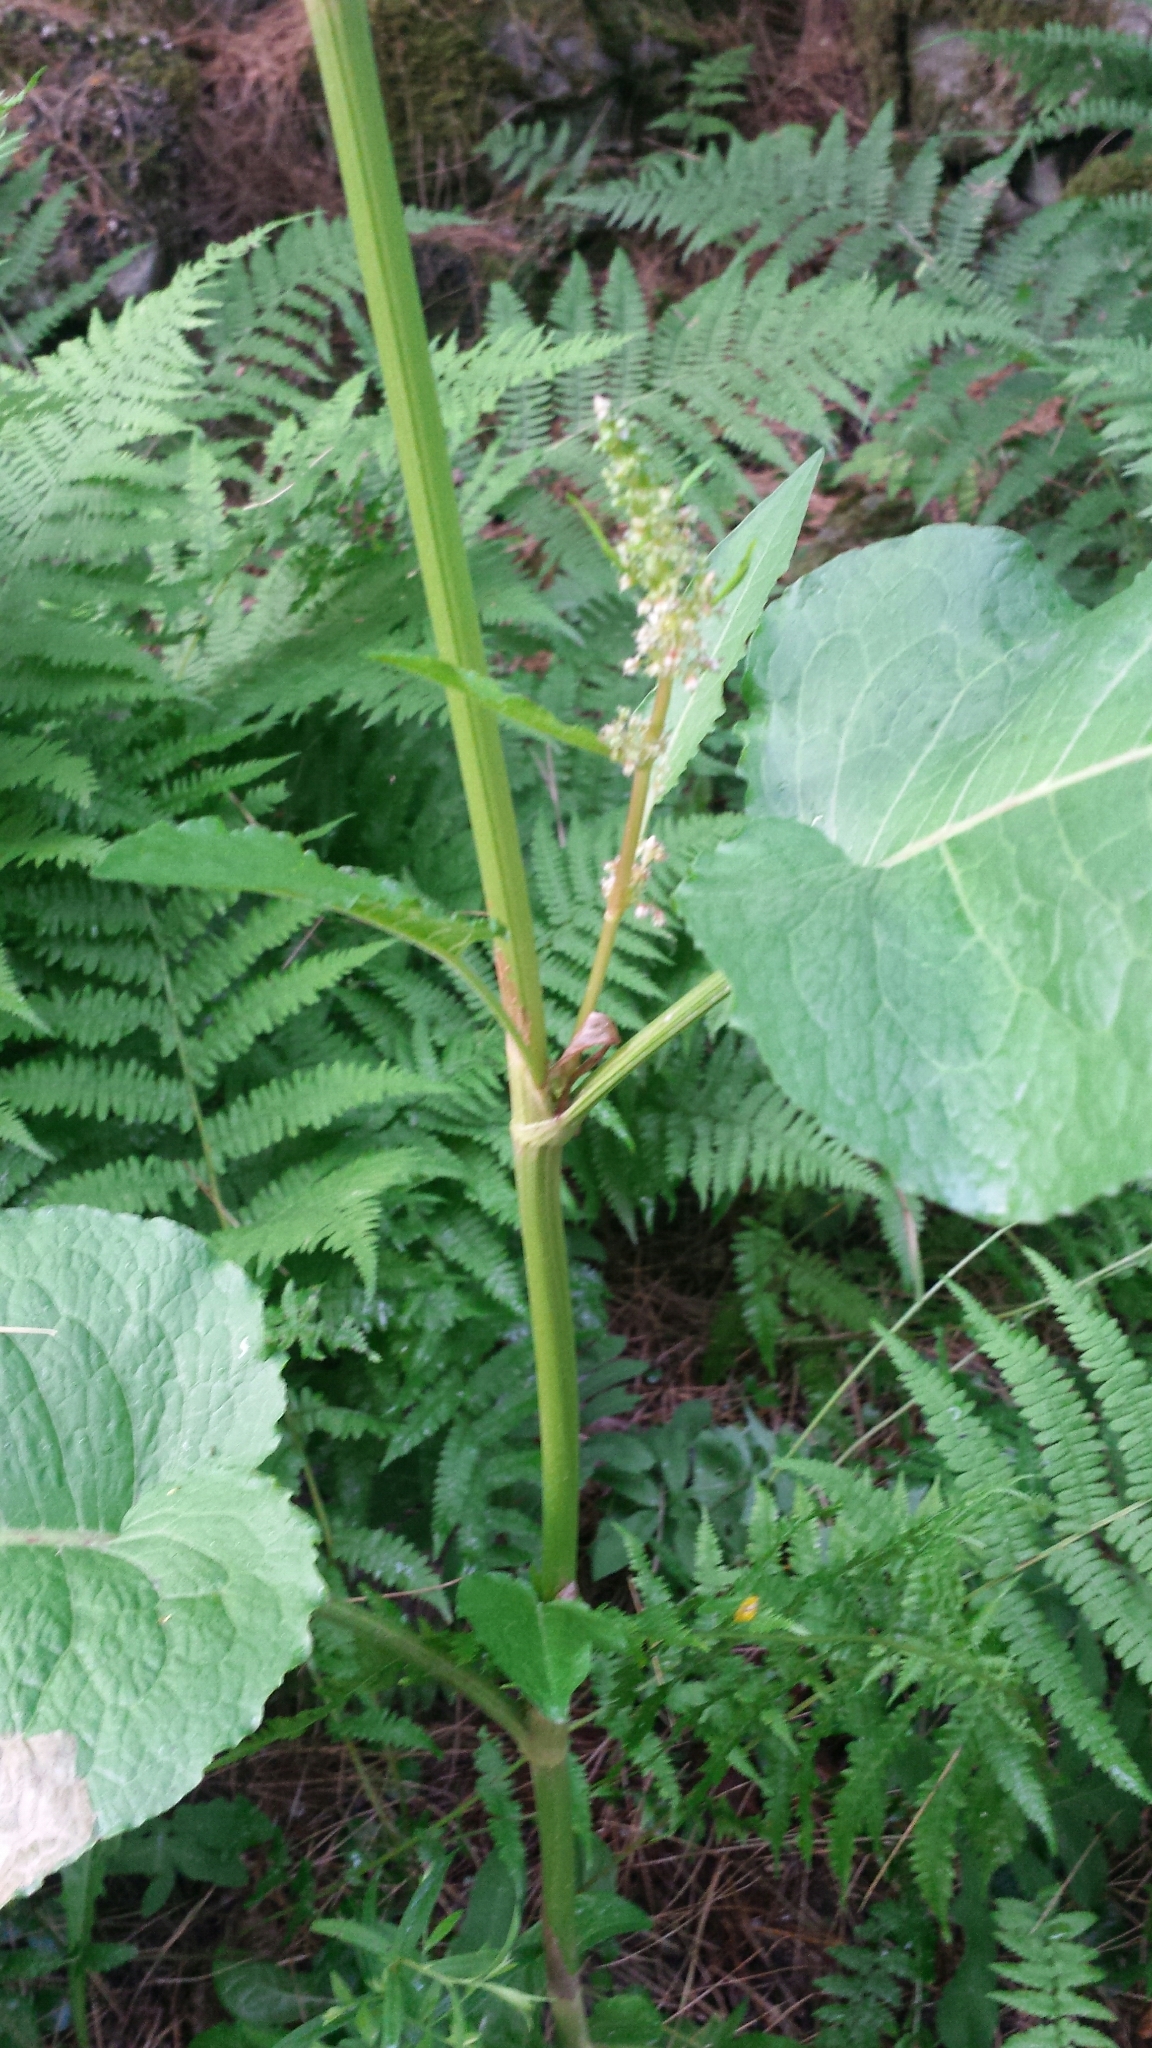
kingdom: Plantae
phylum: Tracheophyta
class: Magnoliopsida
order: Caryophyllales
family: Polygonaceae
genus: Rumex
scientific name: Rumex obtusifolius
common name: Bitter dock
